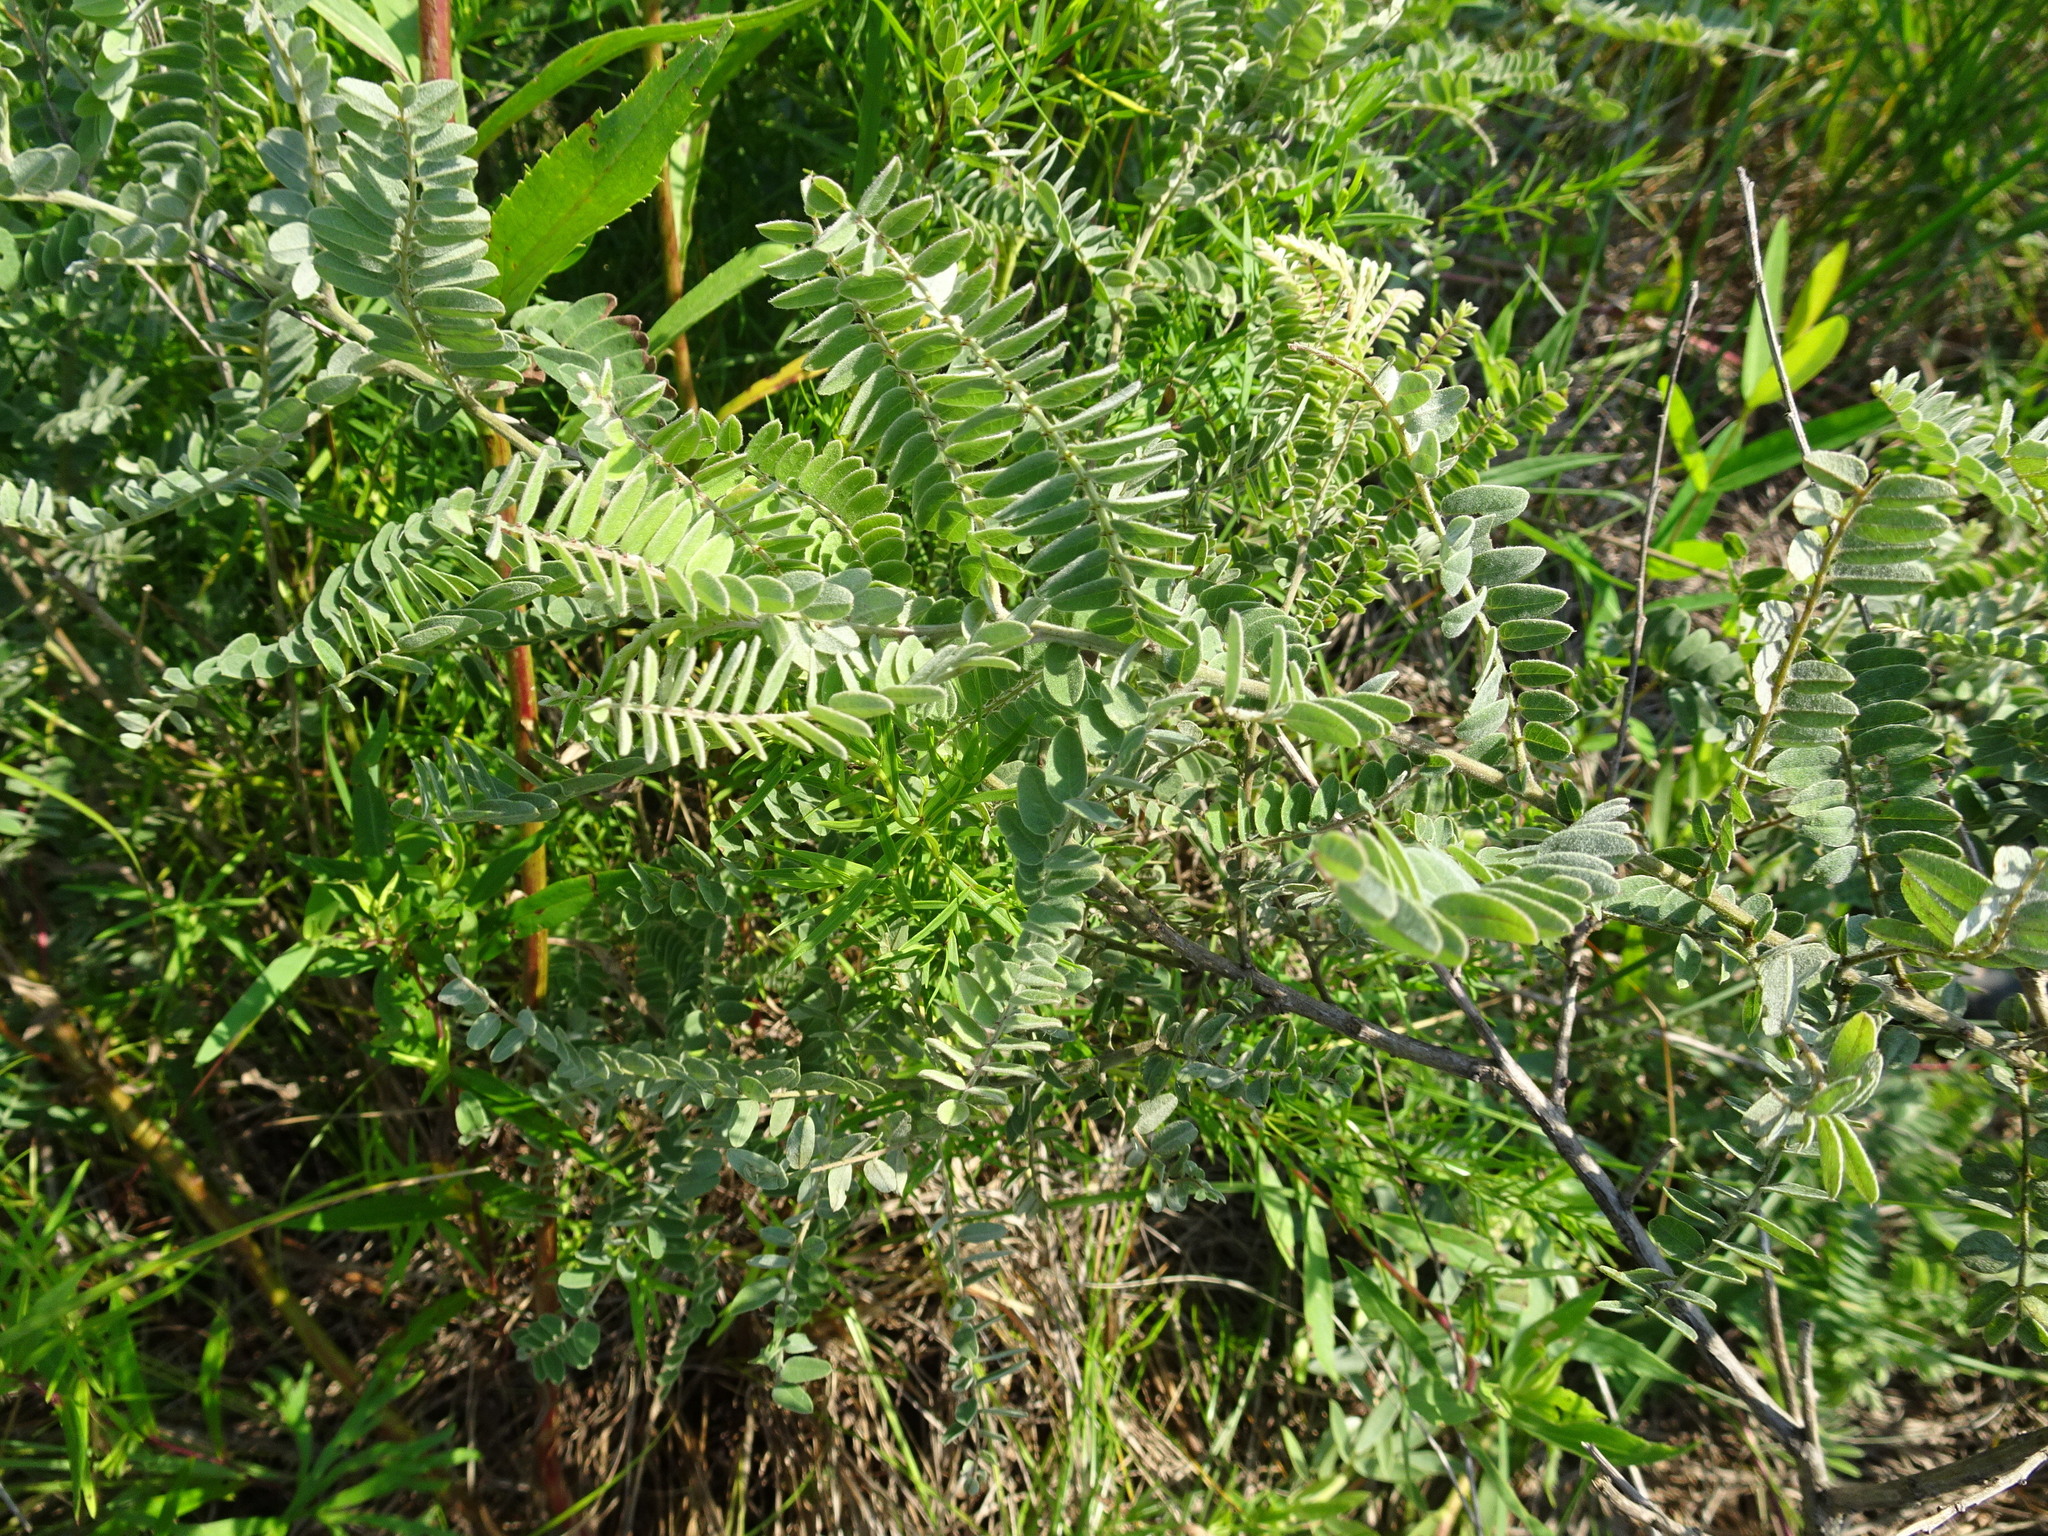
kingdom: Plantae
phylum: Tracheophyta
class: Magnoliopsida
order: Fabales
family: Fabaceae
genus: Amorpha
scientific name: Amorpha canescens
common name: Leadplant
